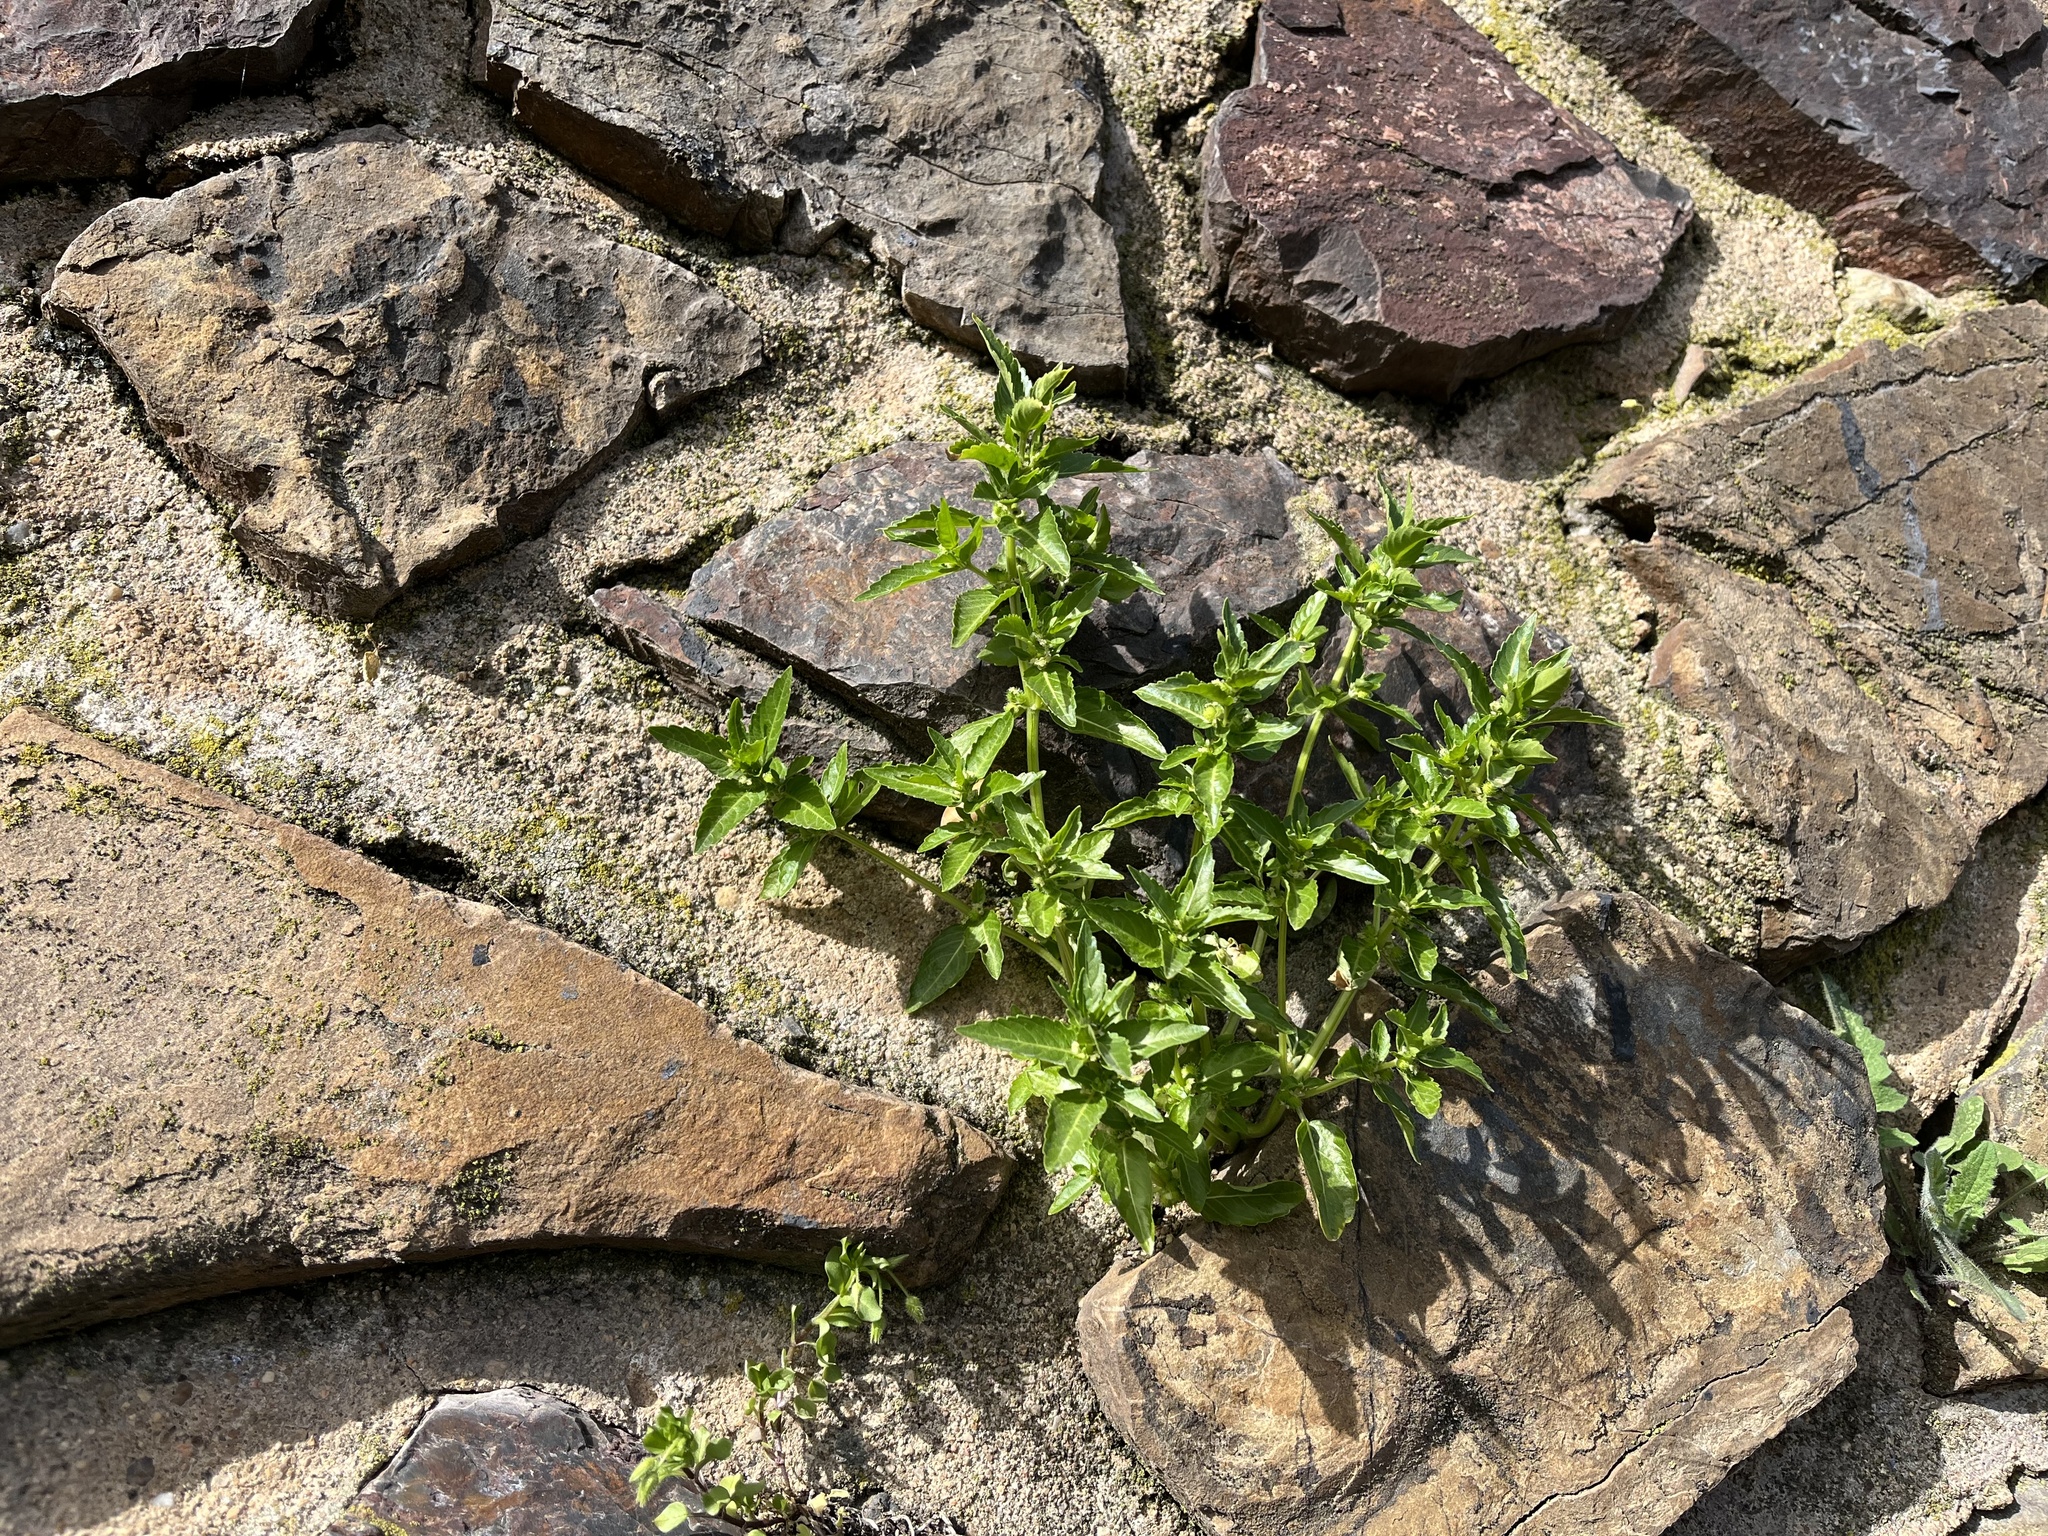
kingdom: Plantae
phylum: Tracheophyta
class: Magnoliopsida
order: Malpighiales
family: Euphorbiaceae
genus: Mercurialis
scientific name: Mercurialis annua
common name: Annual mercury
